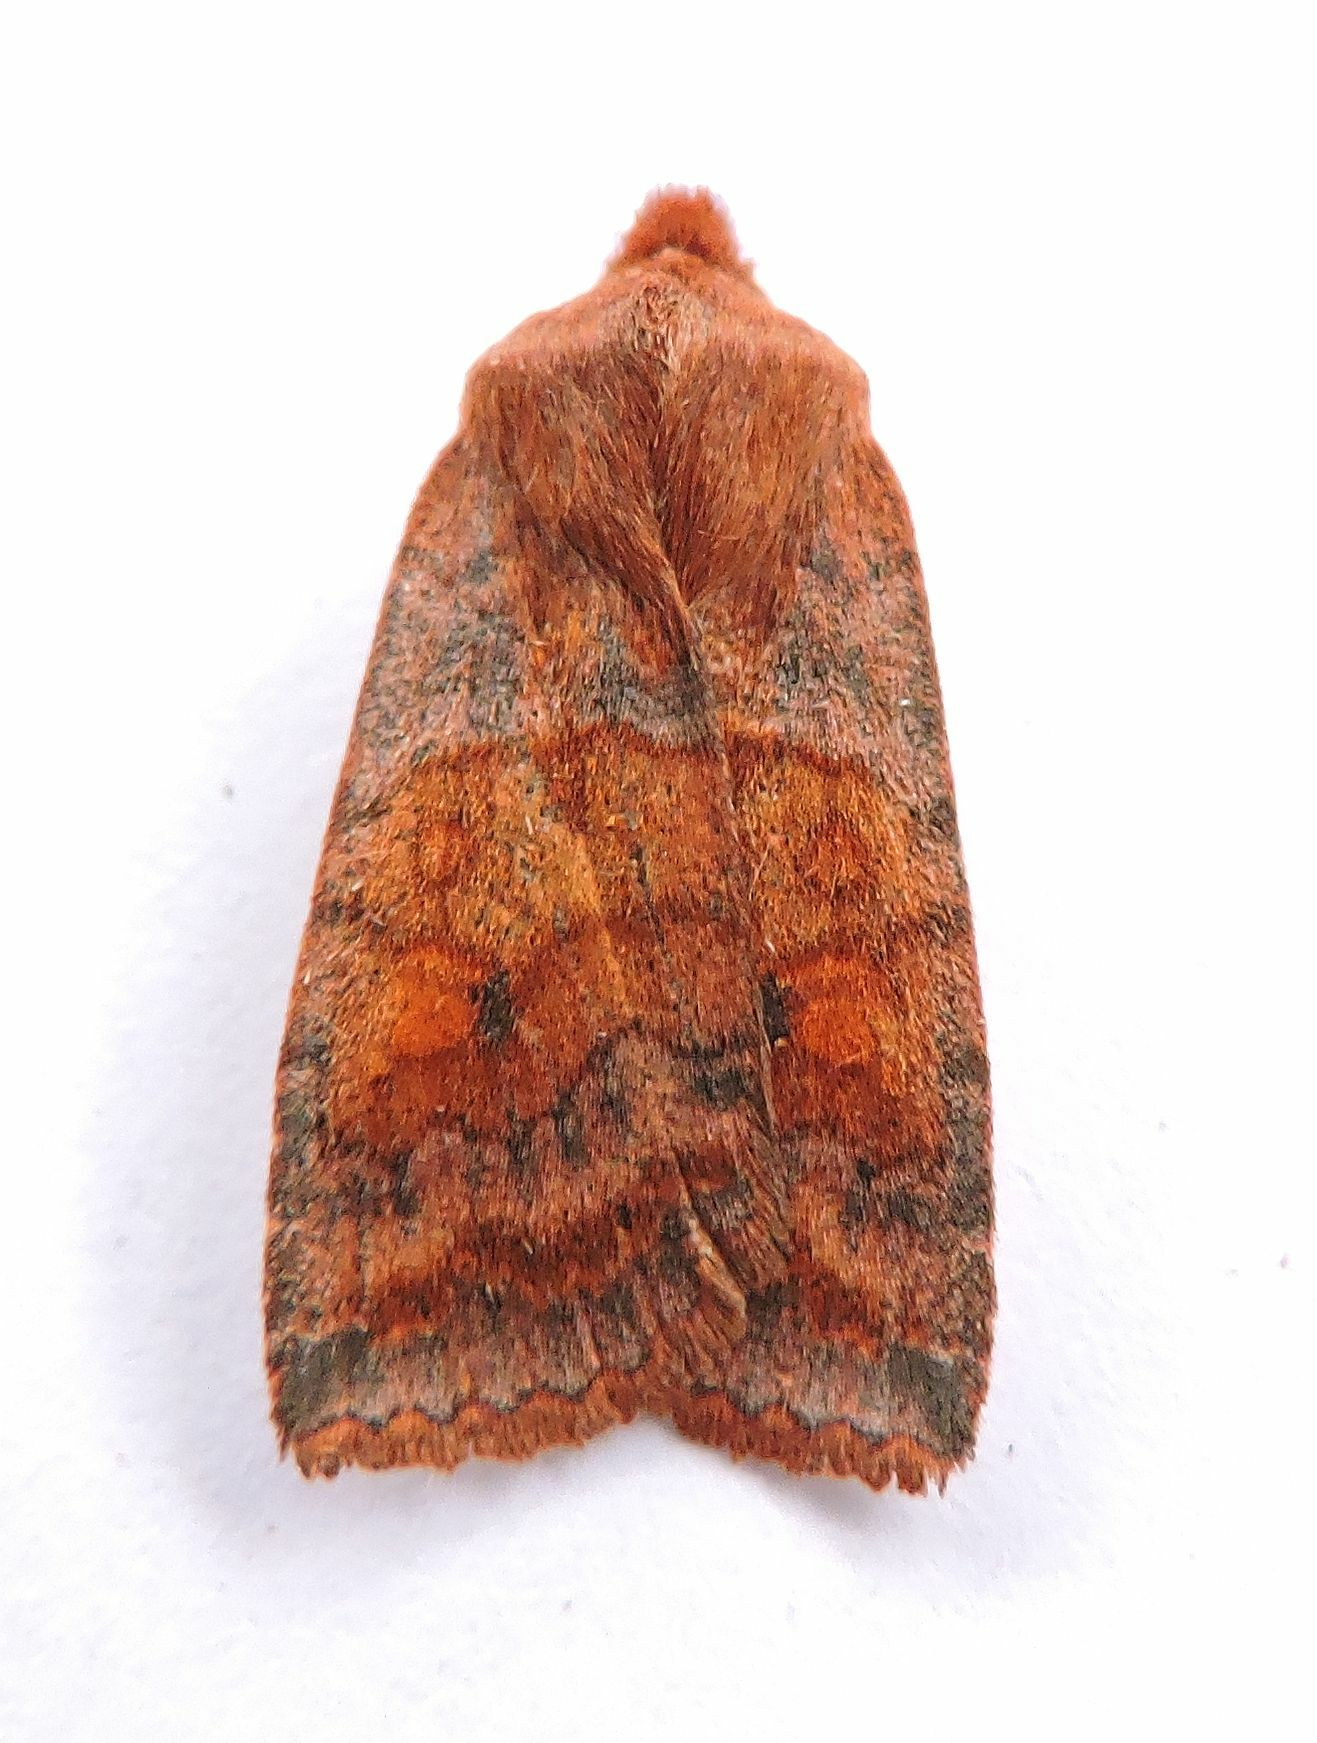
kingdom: Animalia
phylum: Arthropoda
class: Insecta
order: Lepidoptera
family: Noctuidae
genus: Eupsilia
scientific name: Eupsilia tristigmata
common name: Three-spotted sallow
